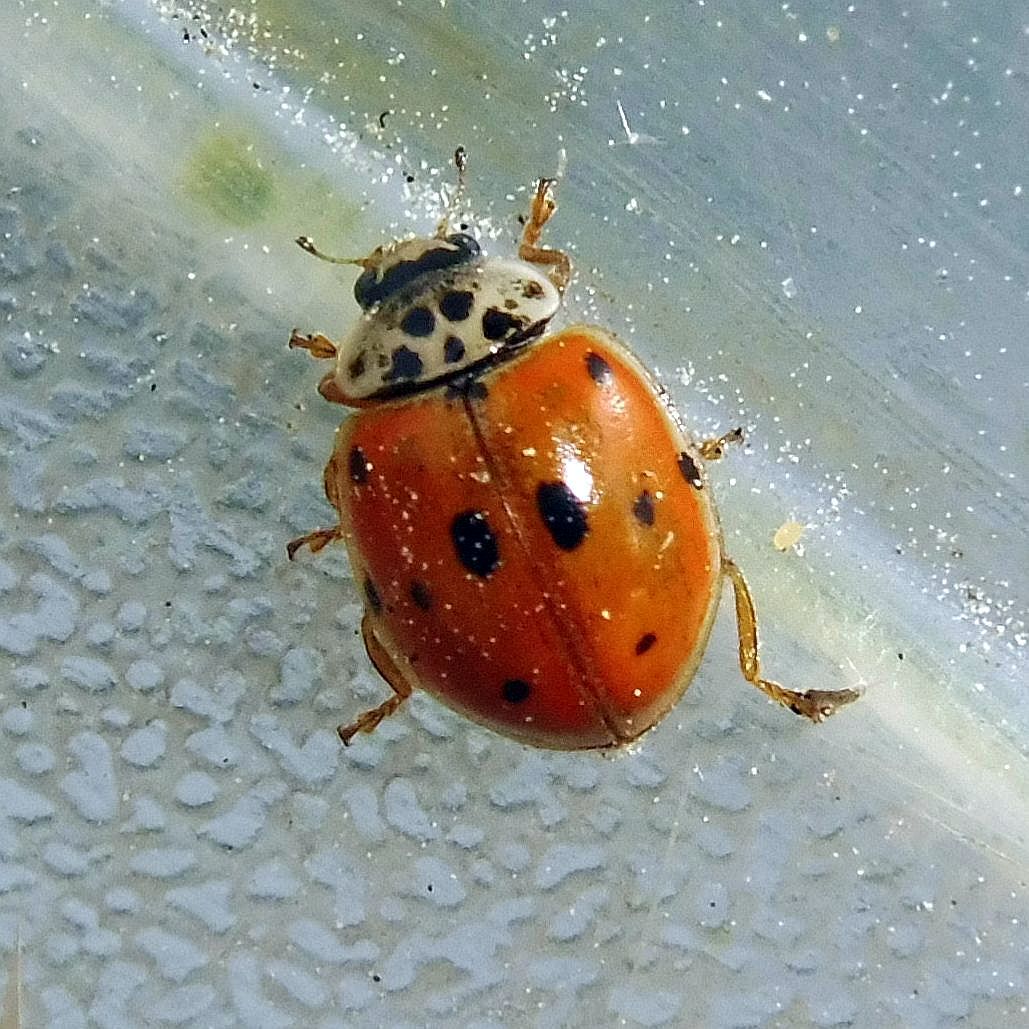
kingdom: Animalia
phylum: Arthropoda
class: Insecta
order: Coleoptera
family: Coccinellidae
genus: Adalia
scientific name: Adalia decempunctata
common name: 10-spot ladybird
